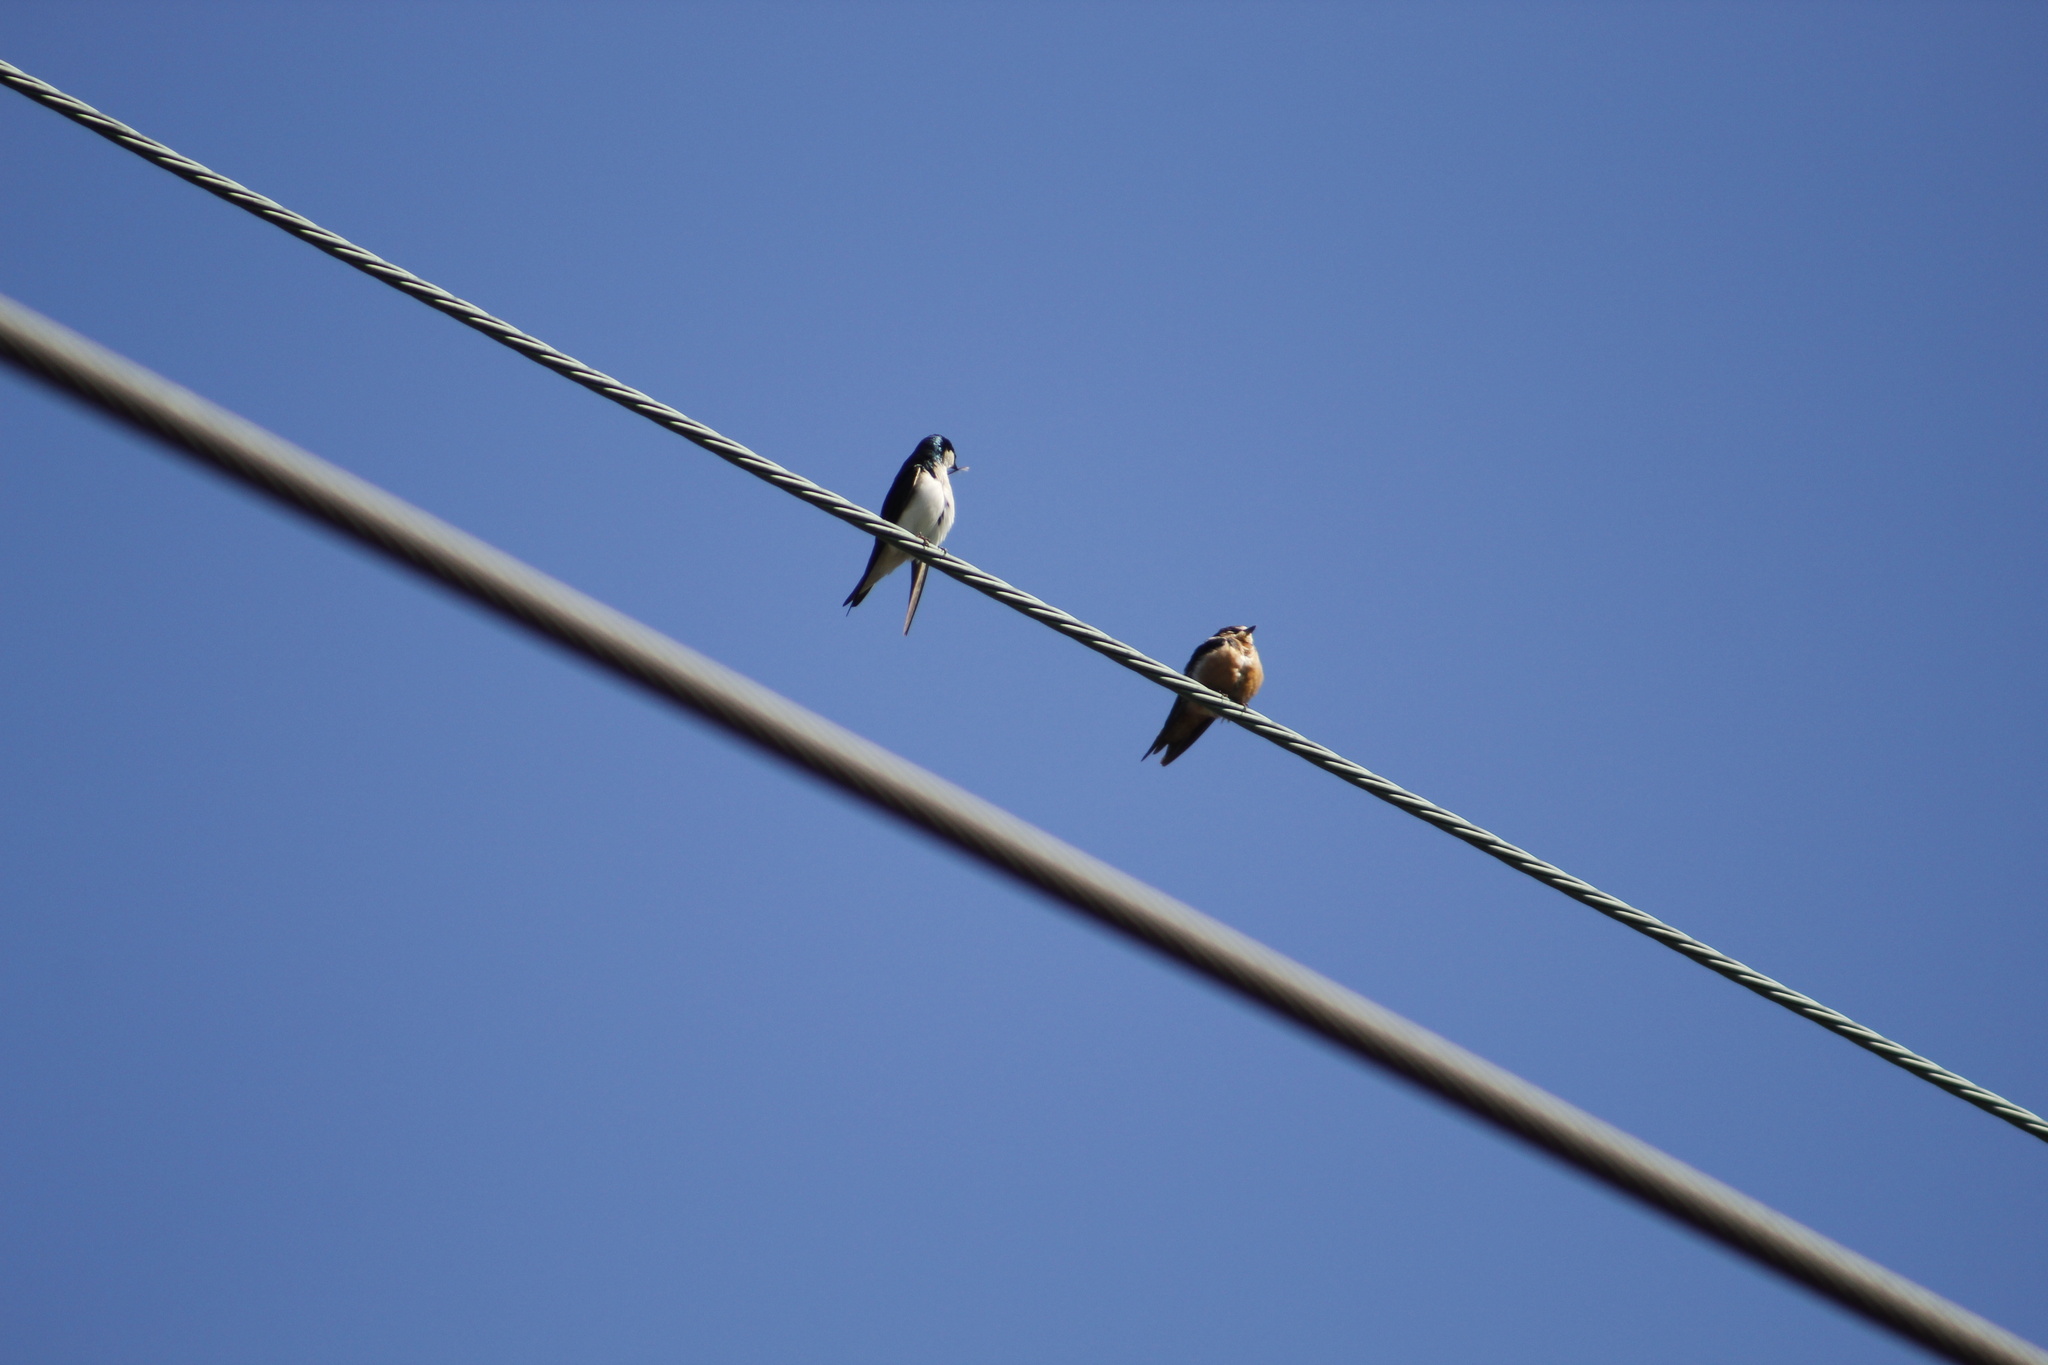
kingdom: Animalia
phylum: Chordata
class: Aves
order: Passeriformes
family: Hirundinidae
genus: Tachycineta
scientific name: Tachycineta bicolor
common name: Tree swallow
